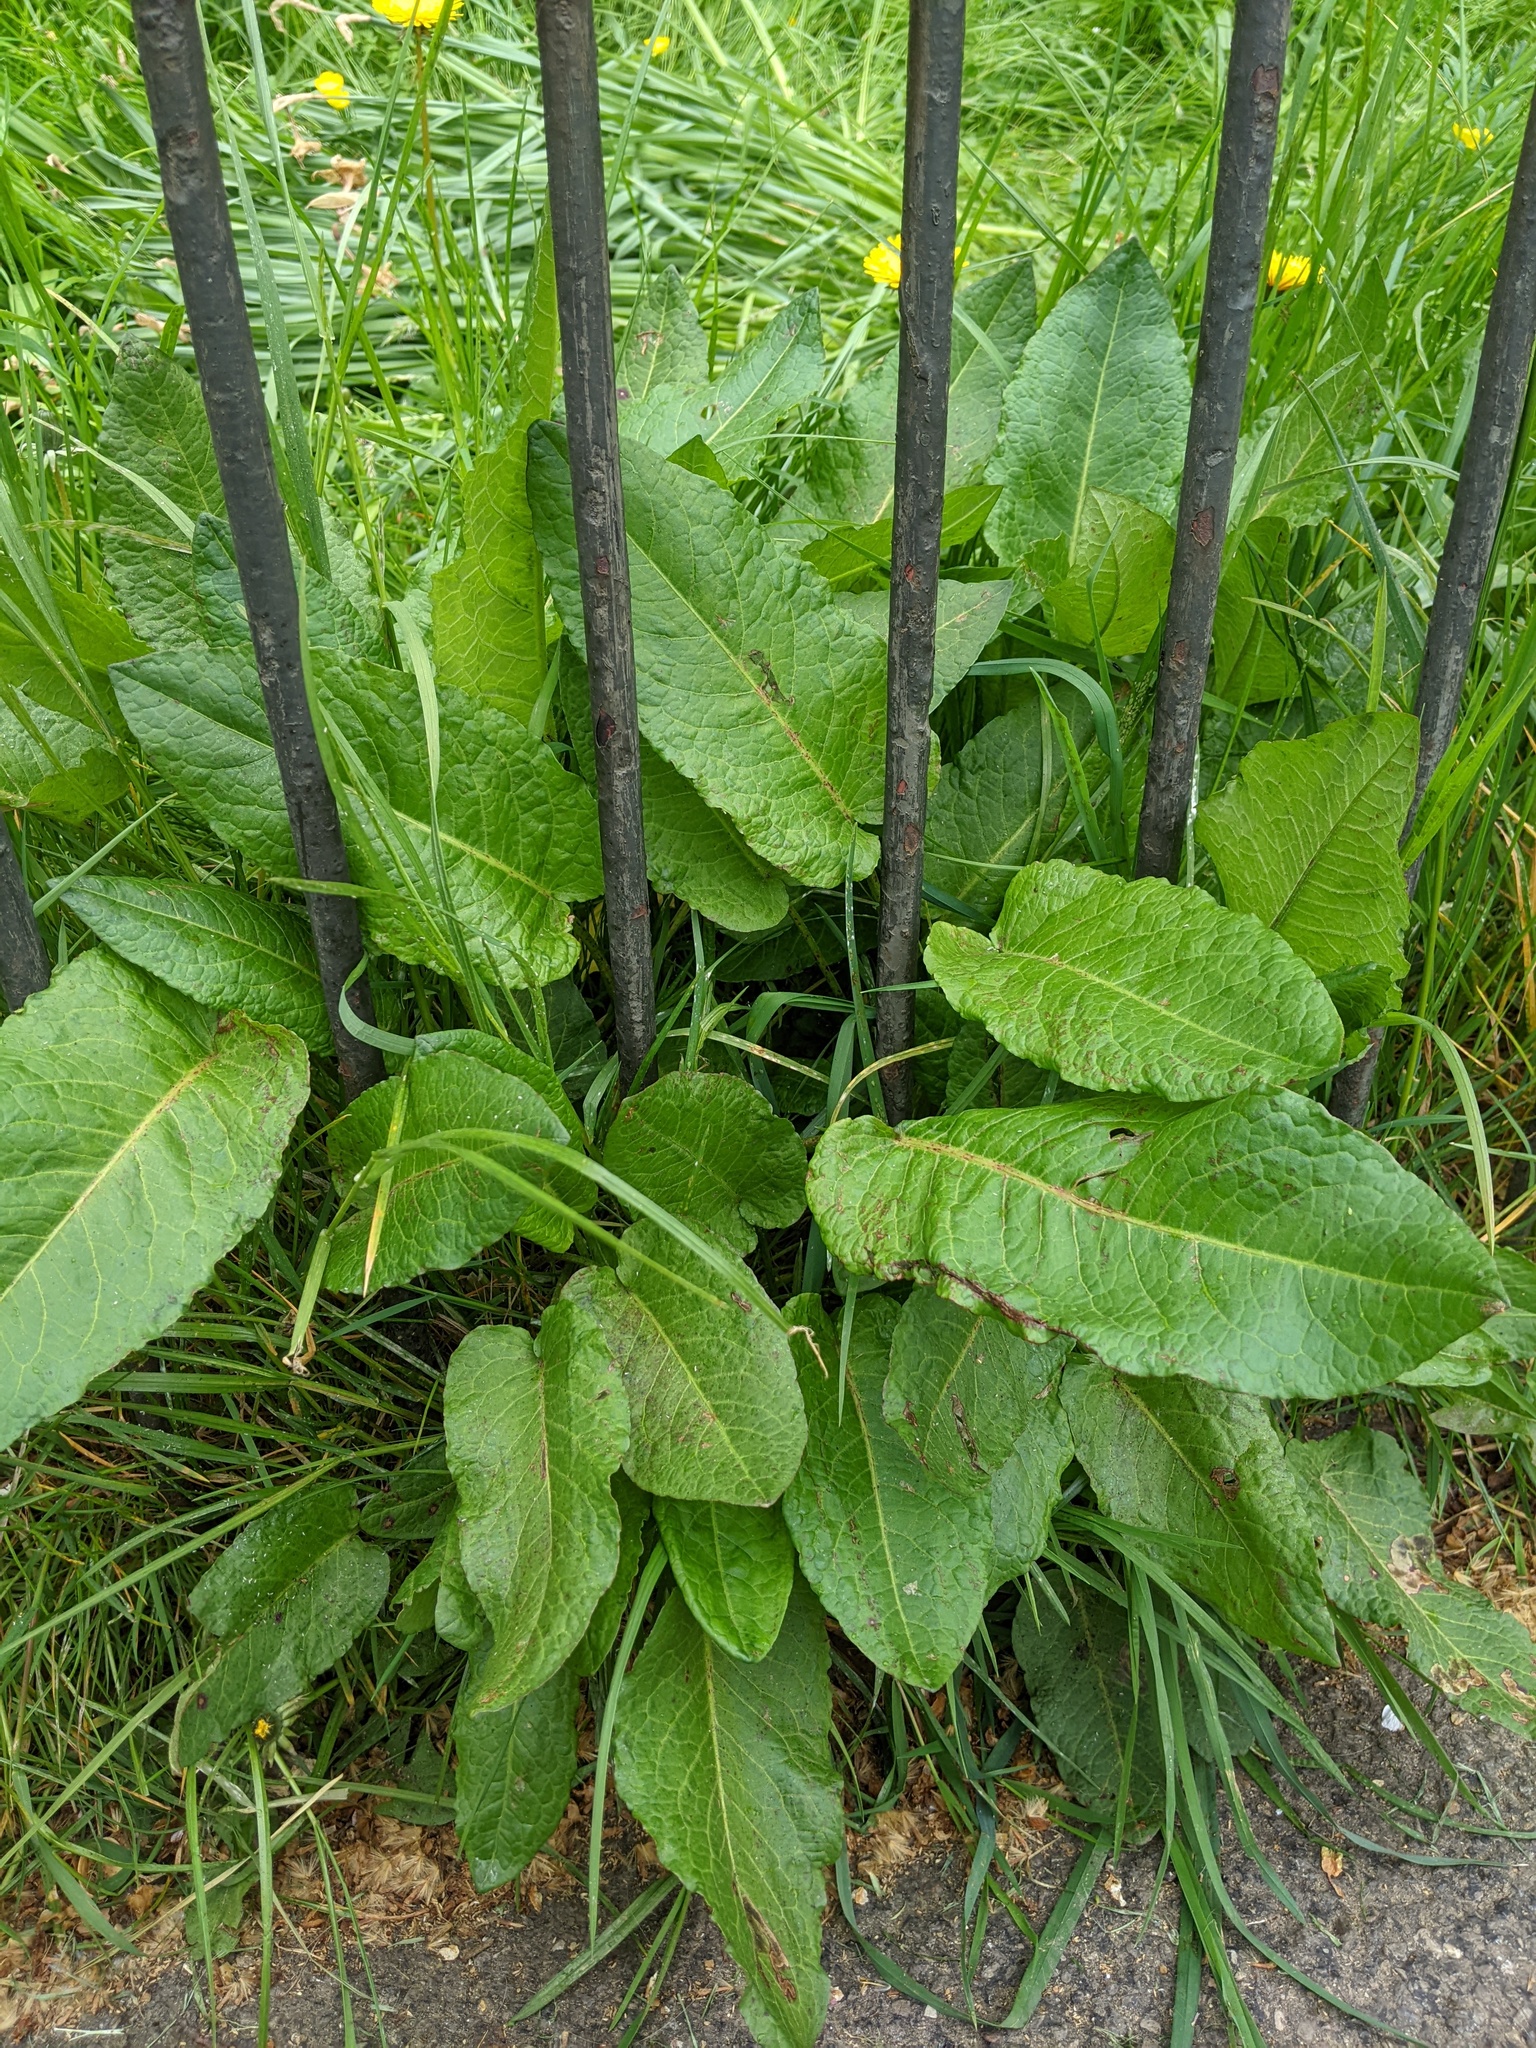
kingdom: Plantae
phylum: Tracheophyta
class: Magnoliopsida
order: Caryophyllales
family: Polygonaceae
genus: Rumex
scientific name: Rumex obtusifolius
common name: Bitter dock
